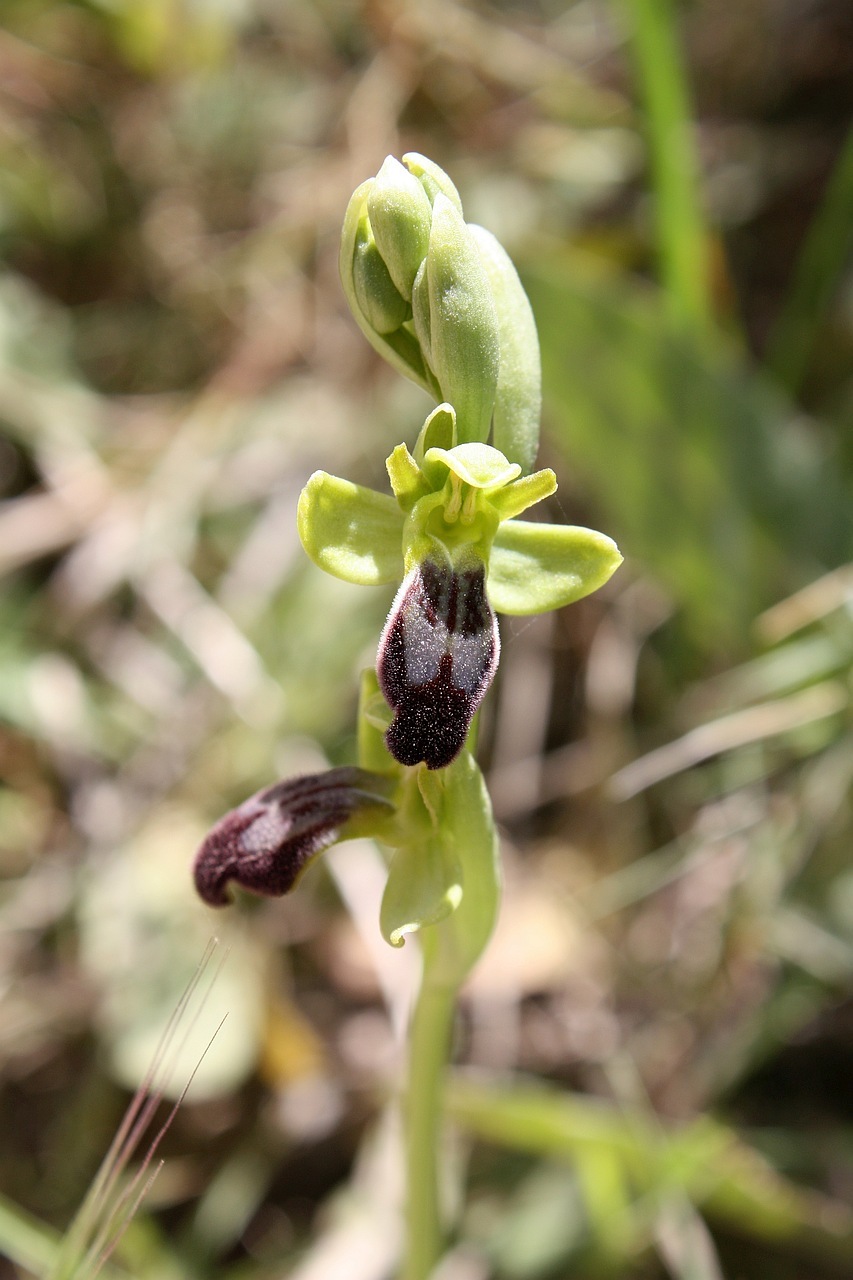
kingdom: Plantae
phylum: Tracheophyta
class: Liliopsida
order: Asparagales
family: Orchidaceae
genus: Ophrys
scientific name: Ophrys fusca
